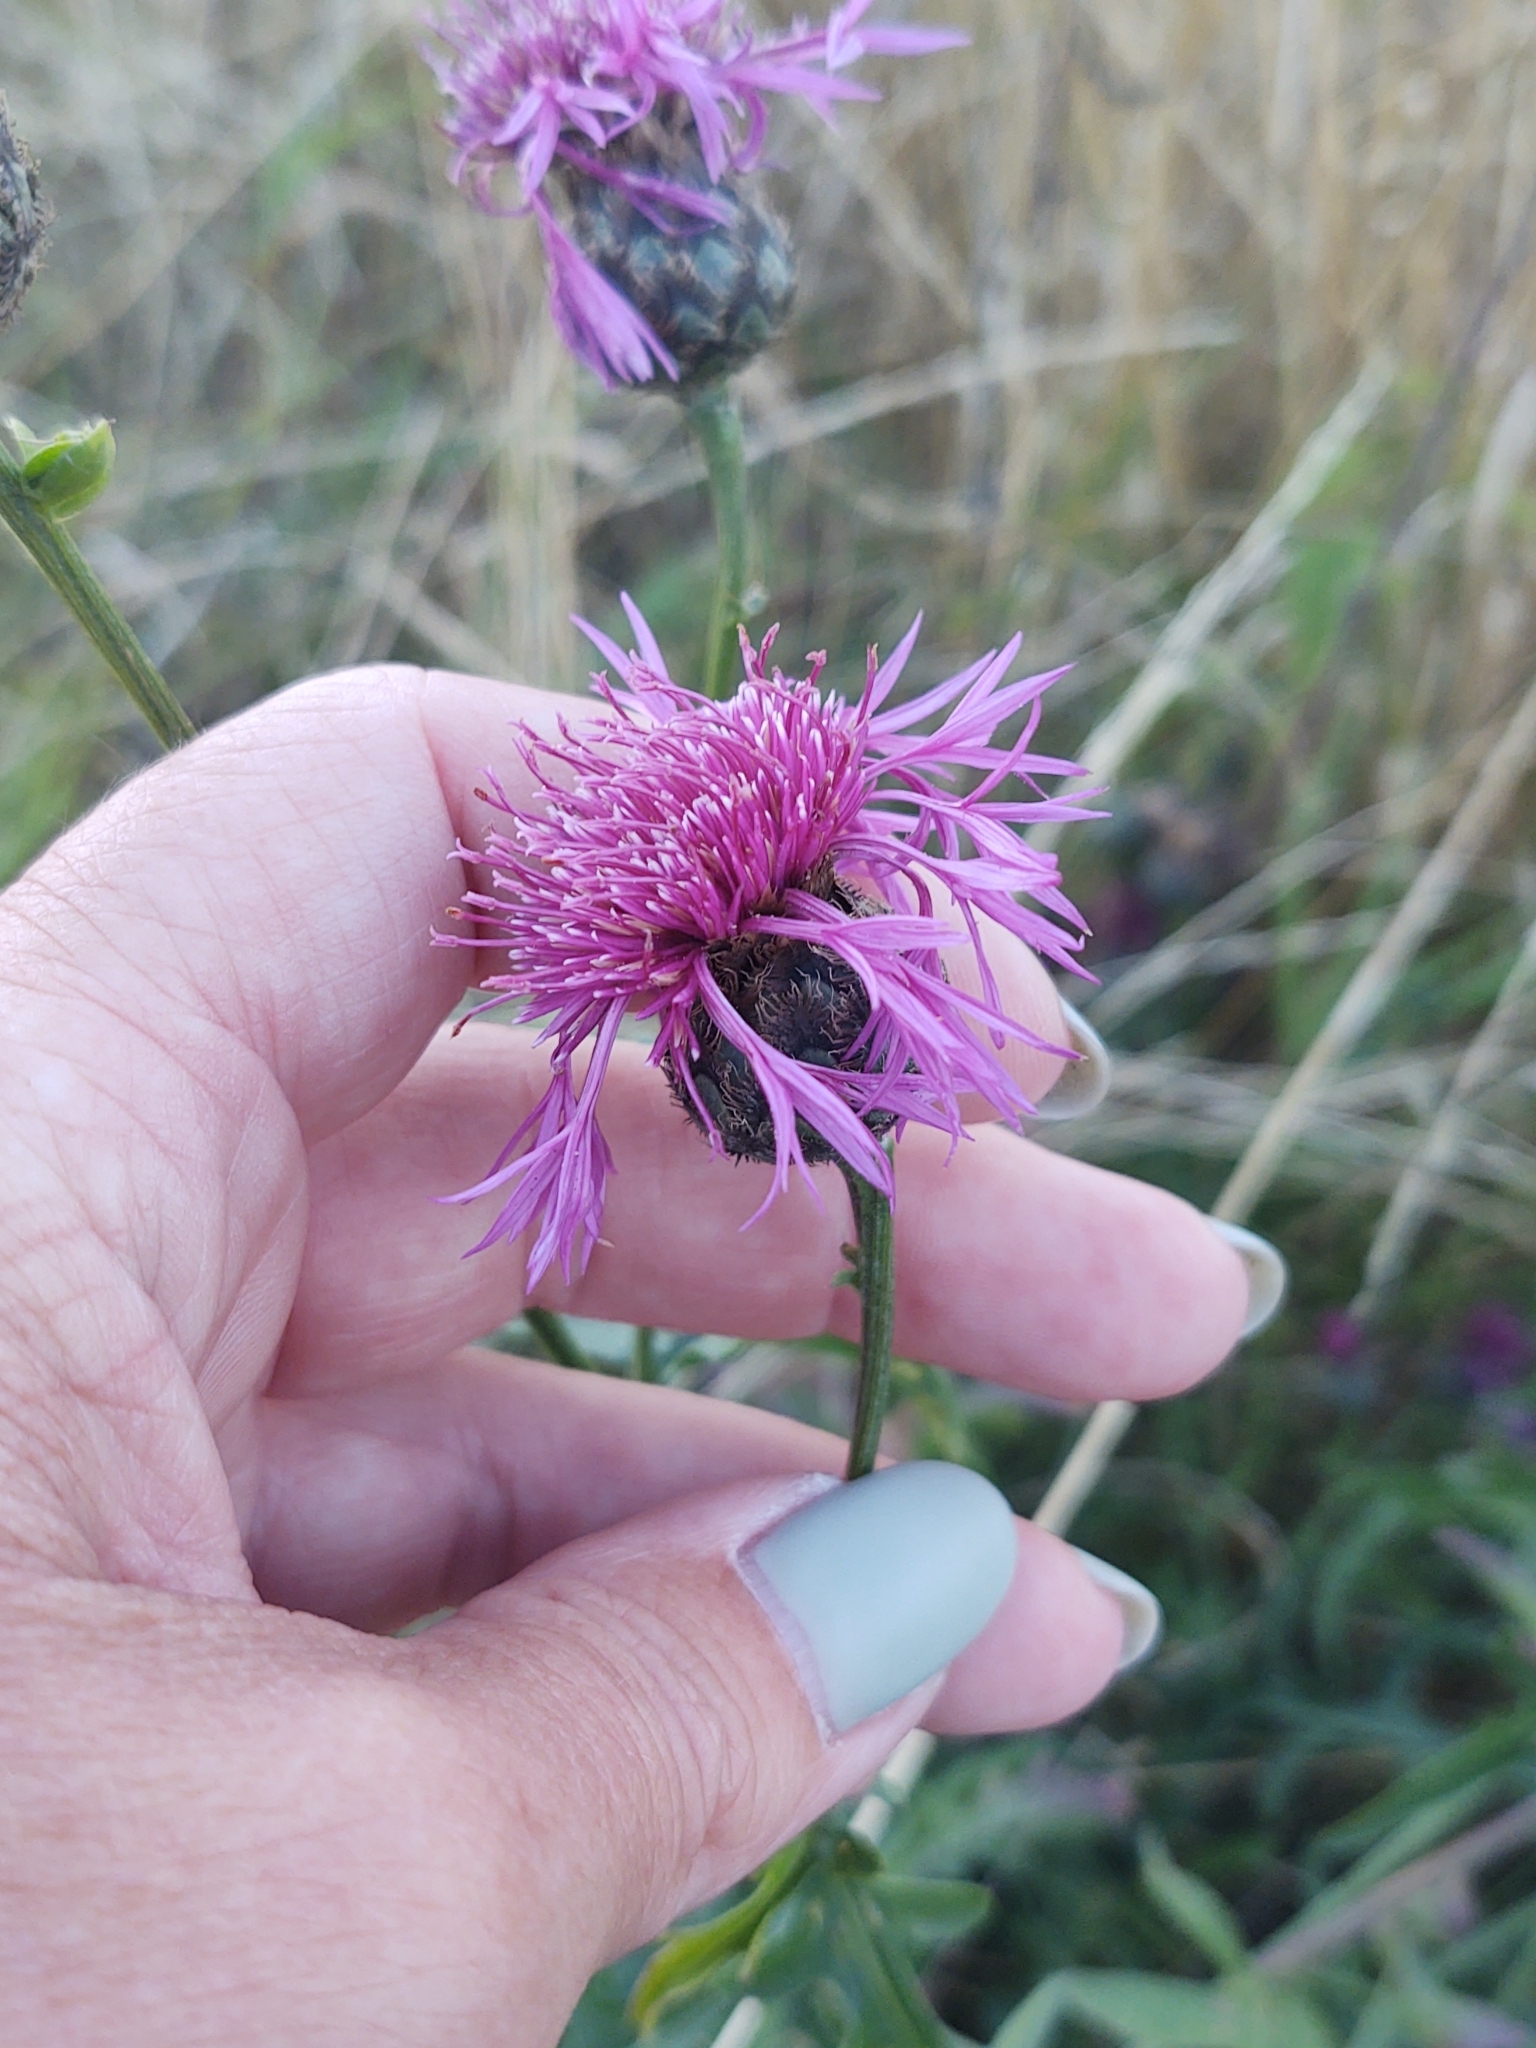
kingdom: Plantae
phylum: Tracheophyta
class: Magnoliopsida
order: Asterales
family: Asteraceae
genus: Centaurea
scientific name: Centaurea scabiosa
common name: Greater knapweed
